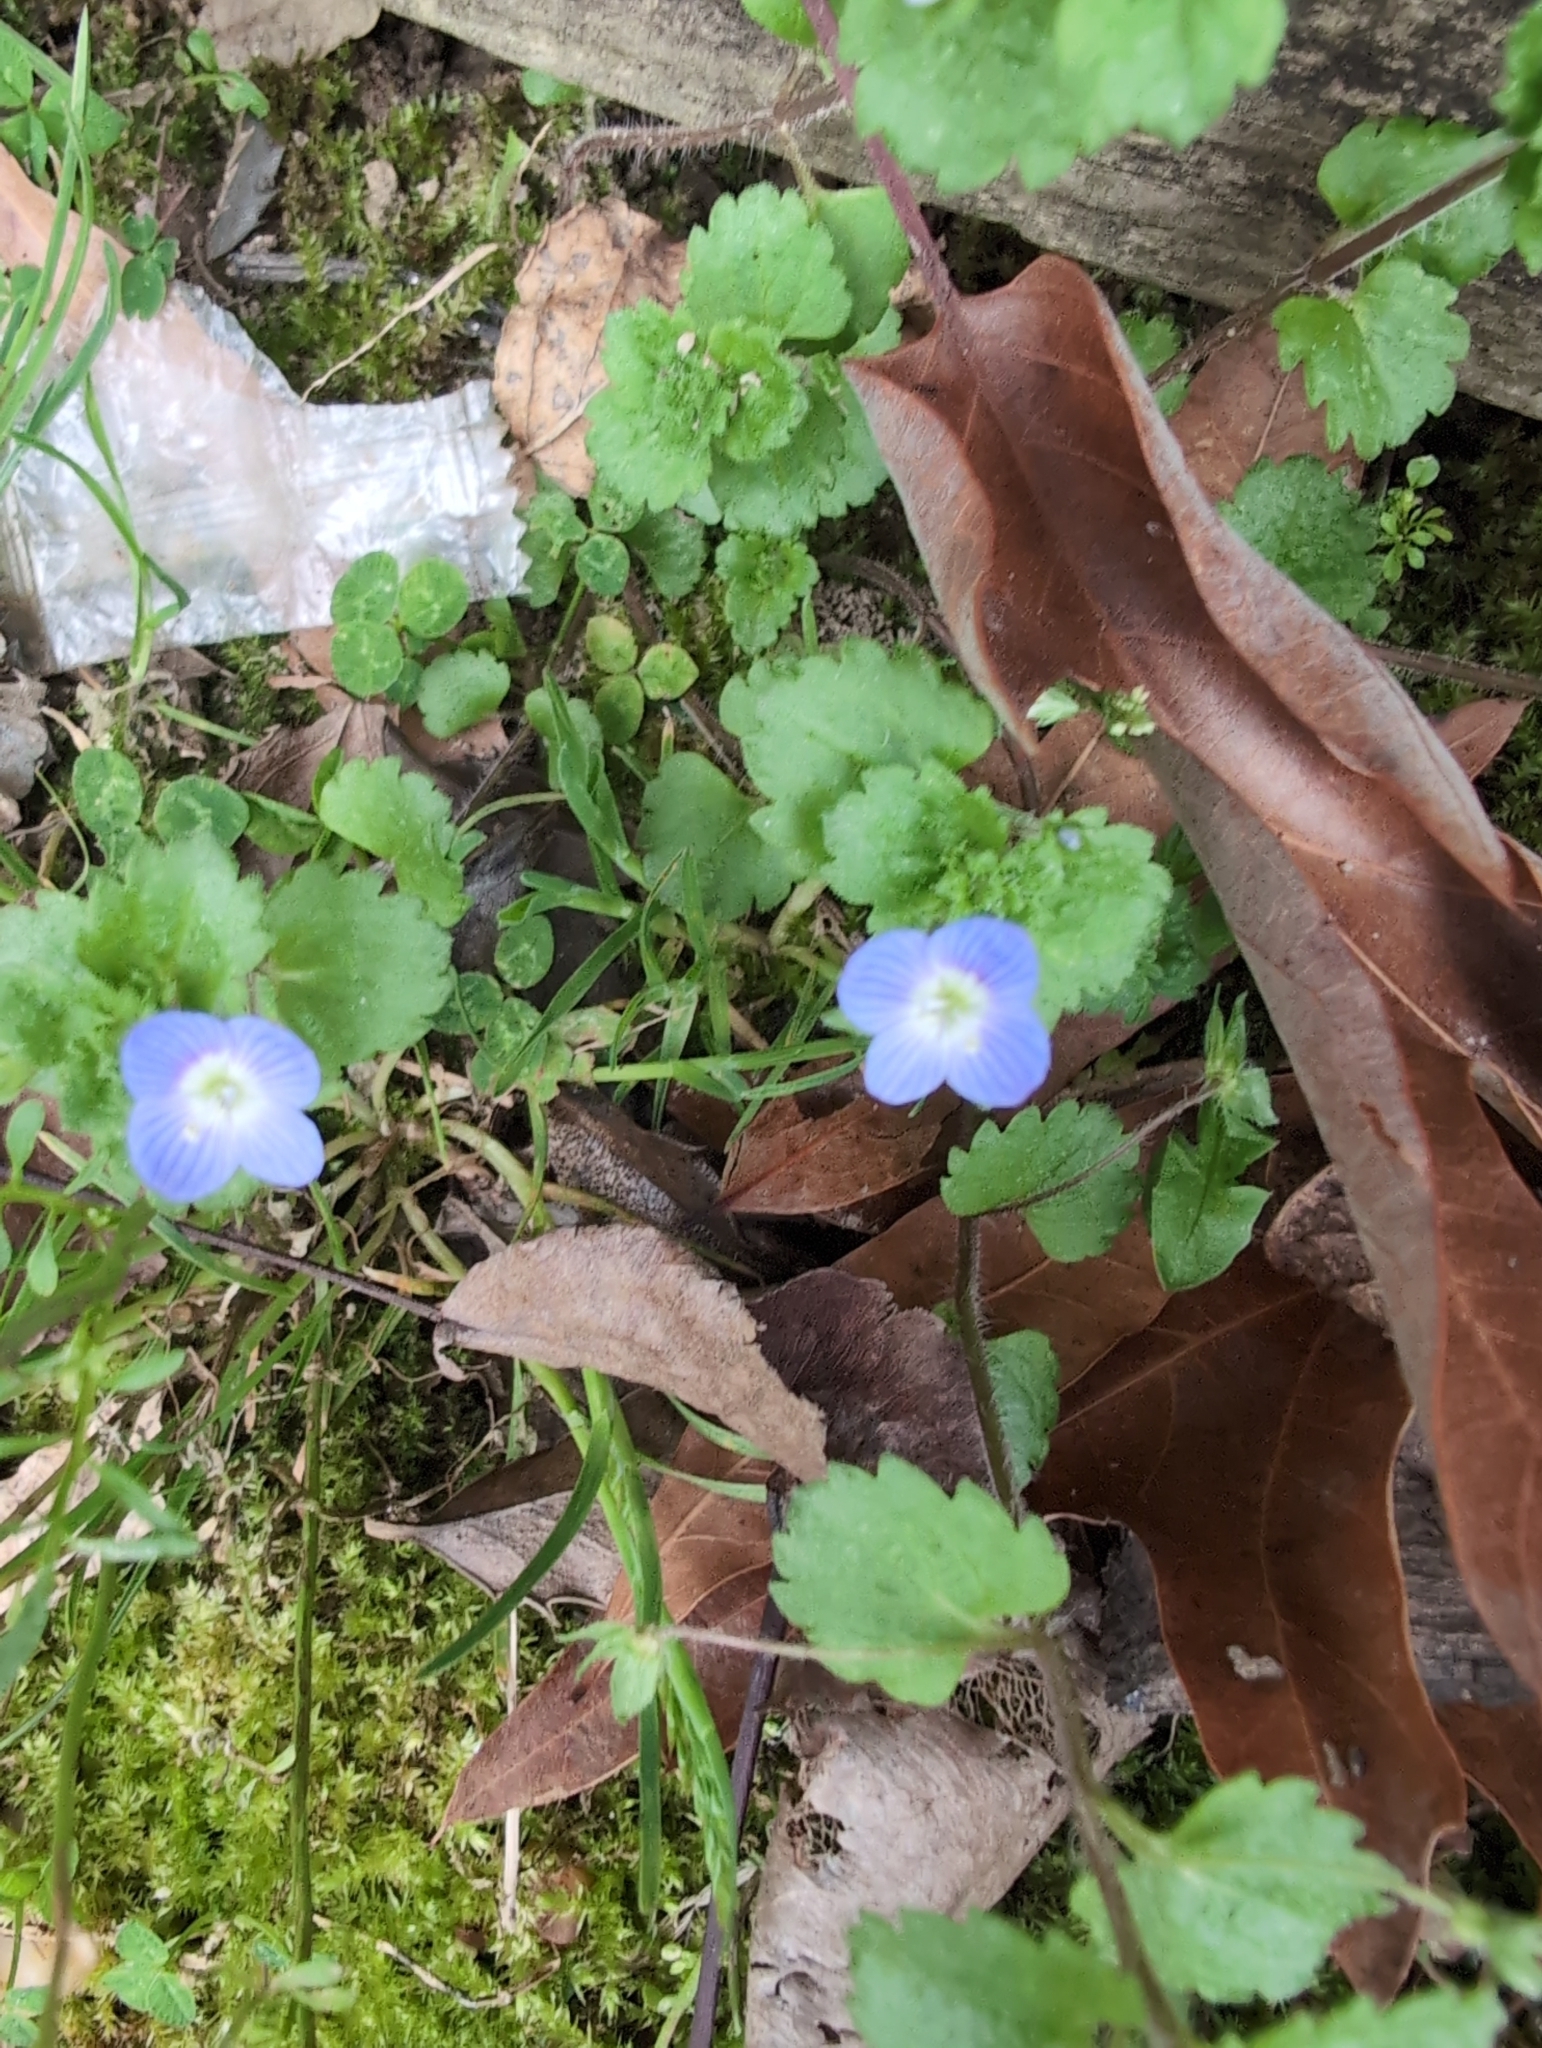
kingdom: Plantae
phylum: Tracheophyta
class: Magnoliopsida
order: Lamiales
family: Plantaginaceae
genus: Veronica
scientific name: Veronica persica
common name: Common field-speedwell
